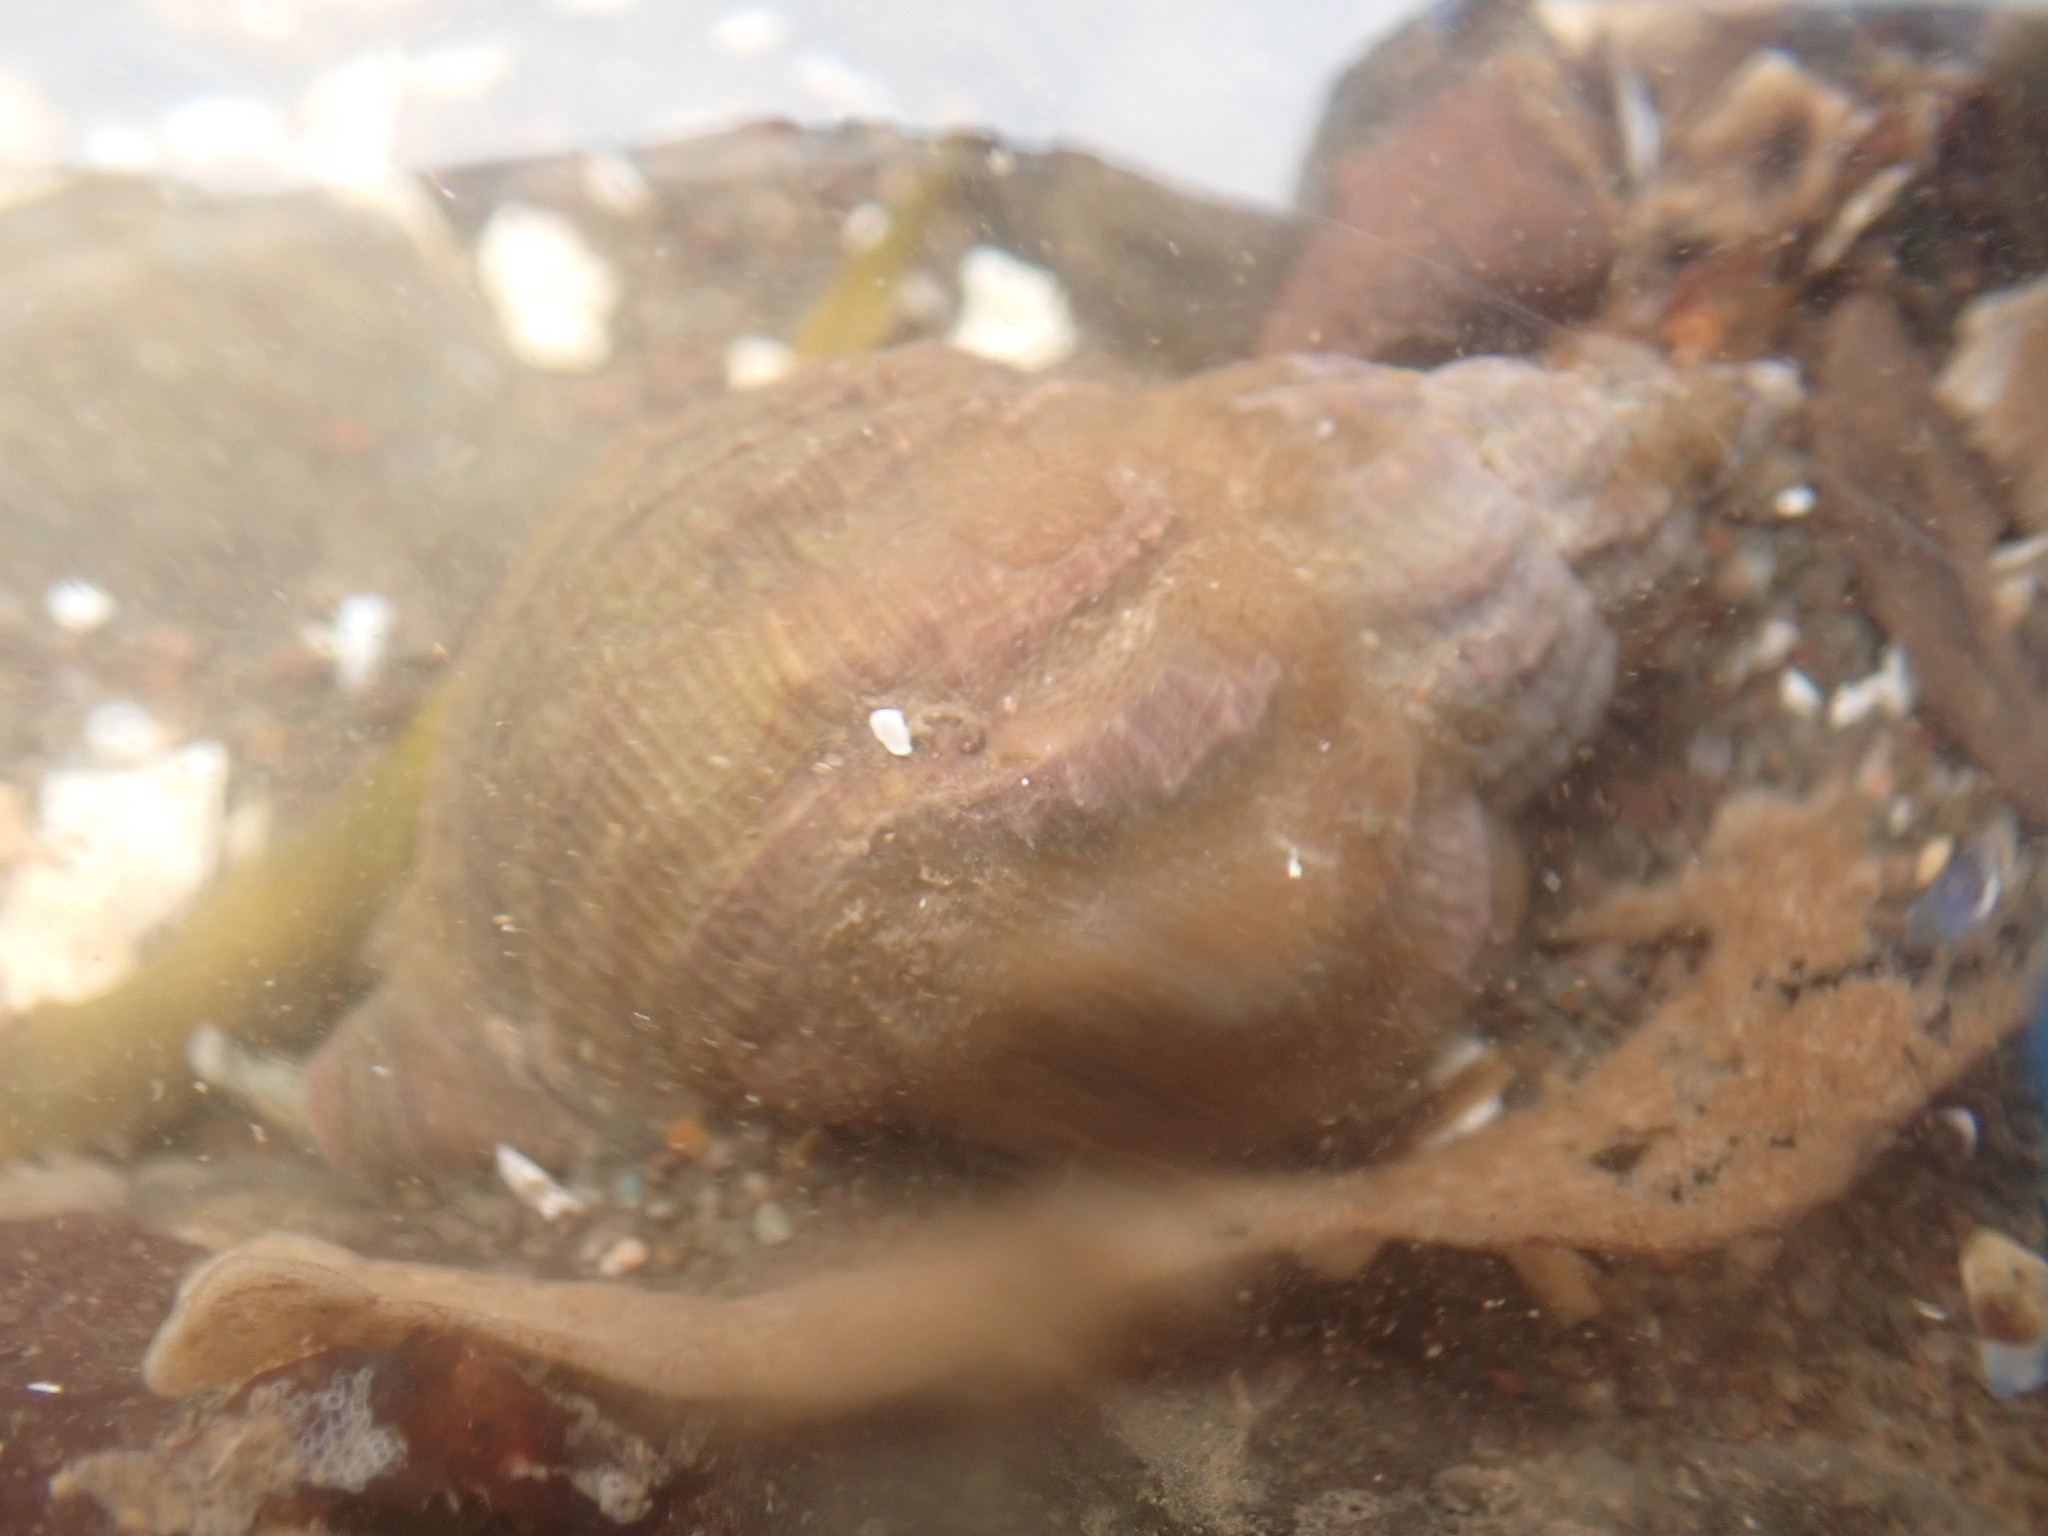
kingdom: Animalia
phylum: Mollusca
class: Gastropoda
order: Neogastropoda
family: Buccinidae
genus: Buccinum
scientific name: Buccinum undatum
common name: Common whelk
